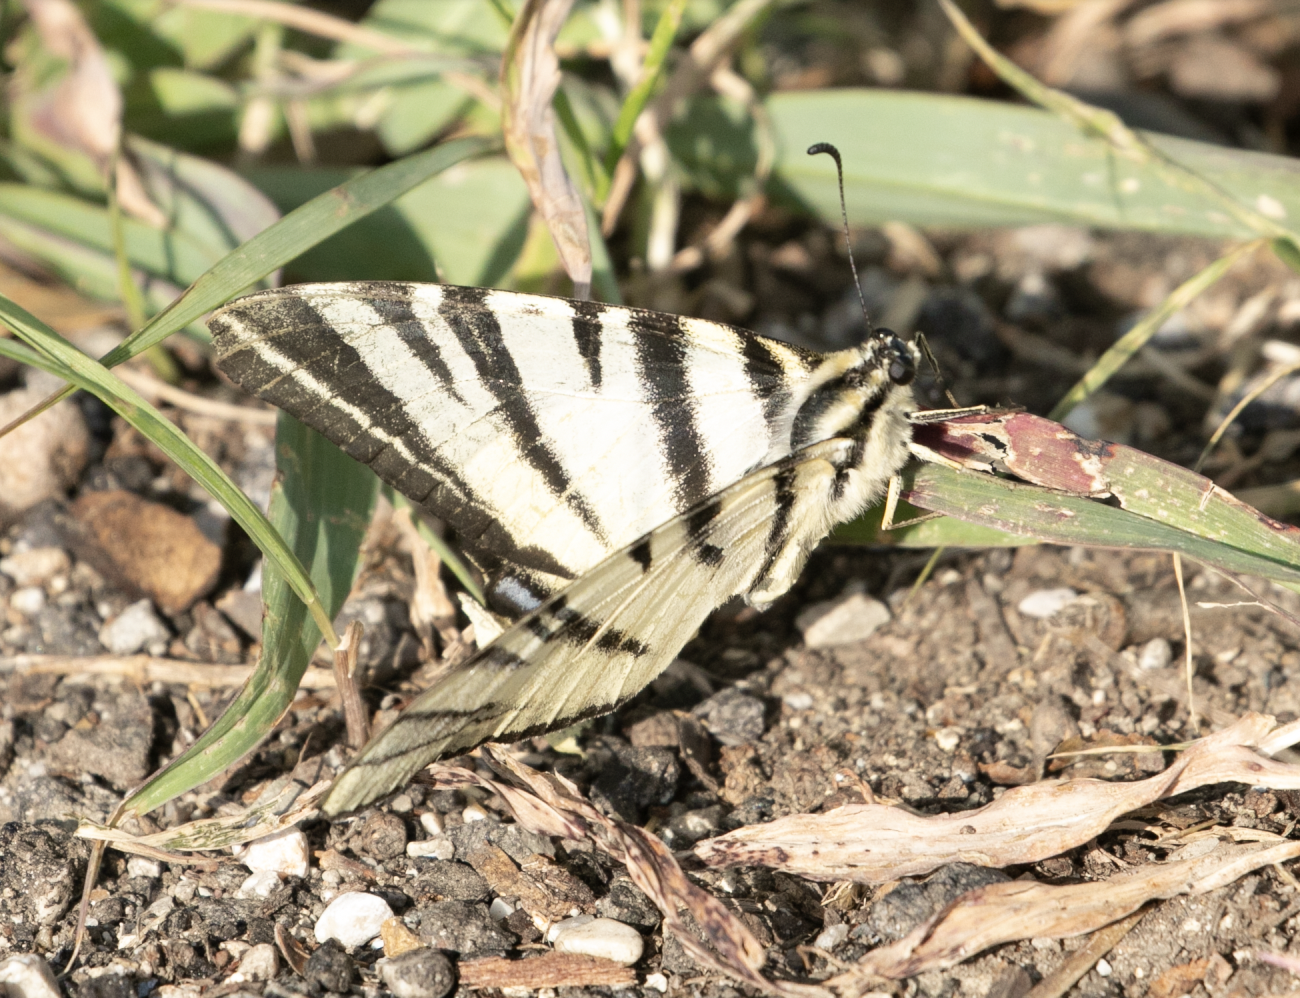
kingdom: Animalia
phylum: Arthropoda
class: Insecta
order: Lepidoptera
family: Papilionidae
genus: Iphiclides
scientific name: Iphiclides podalirius
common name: Scarce swallowtail
